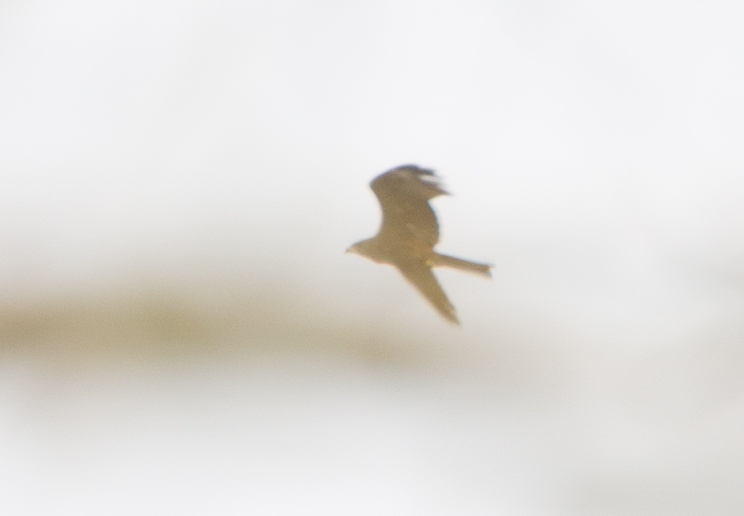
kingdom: Animalia
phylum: Chordata
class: Aves
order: Accipitriformes
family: Accipitridae
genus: Milvus
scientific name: Milvus migrans
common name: Black kite
